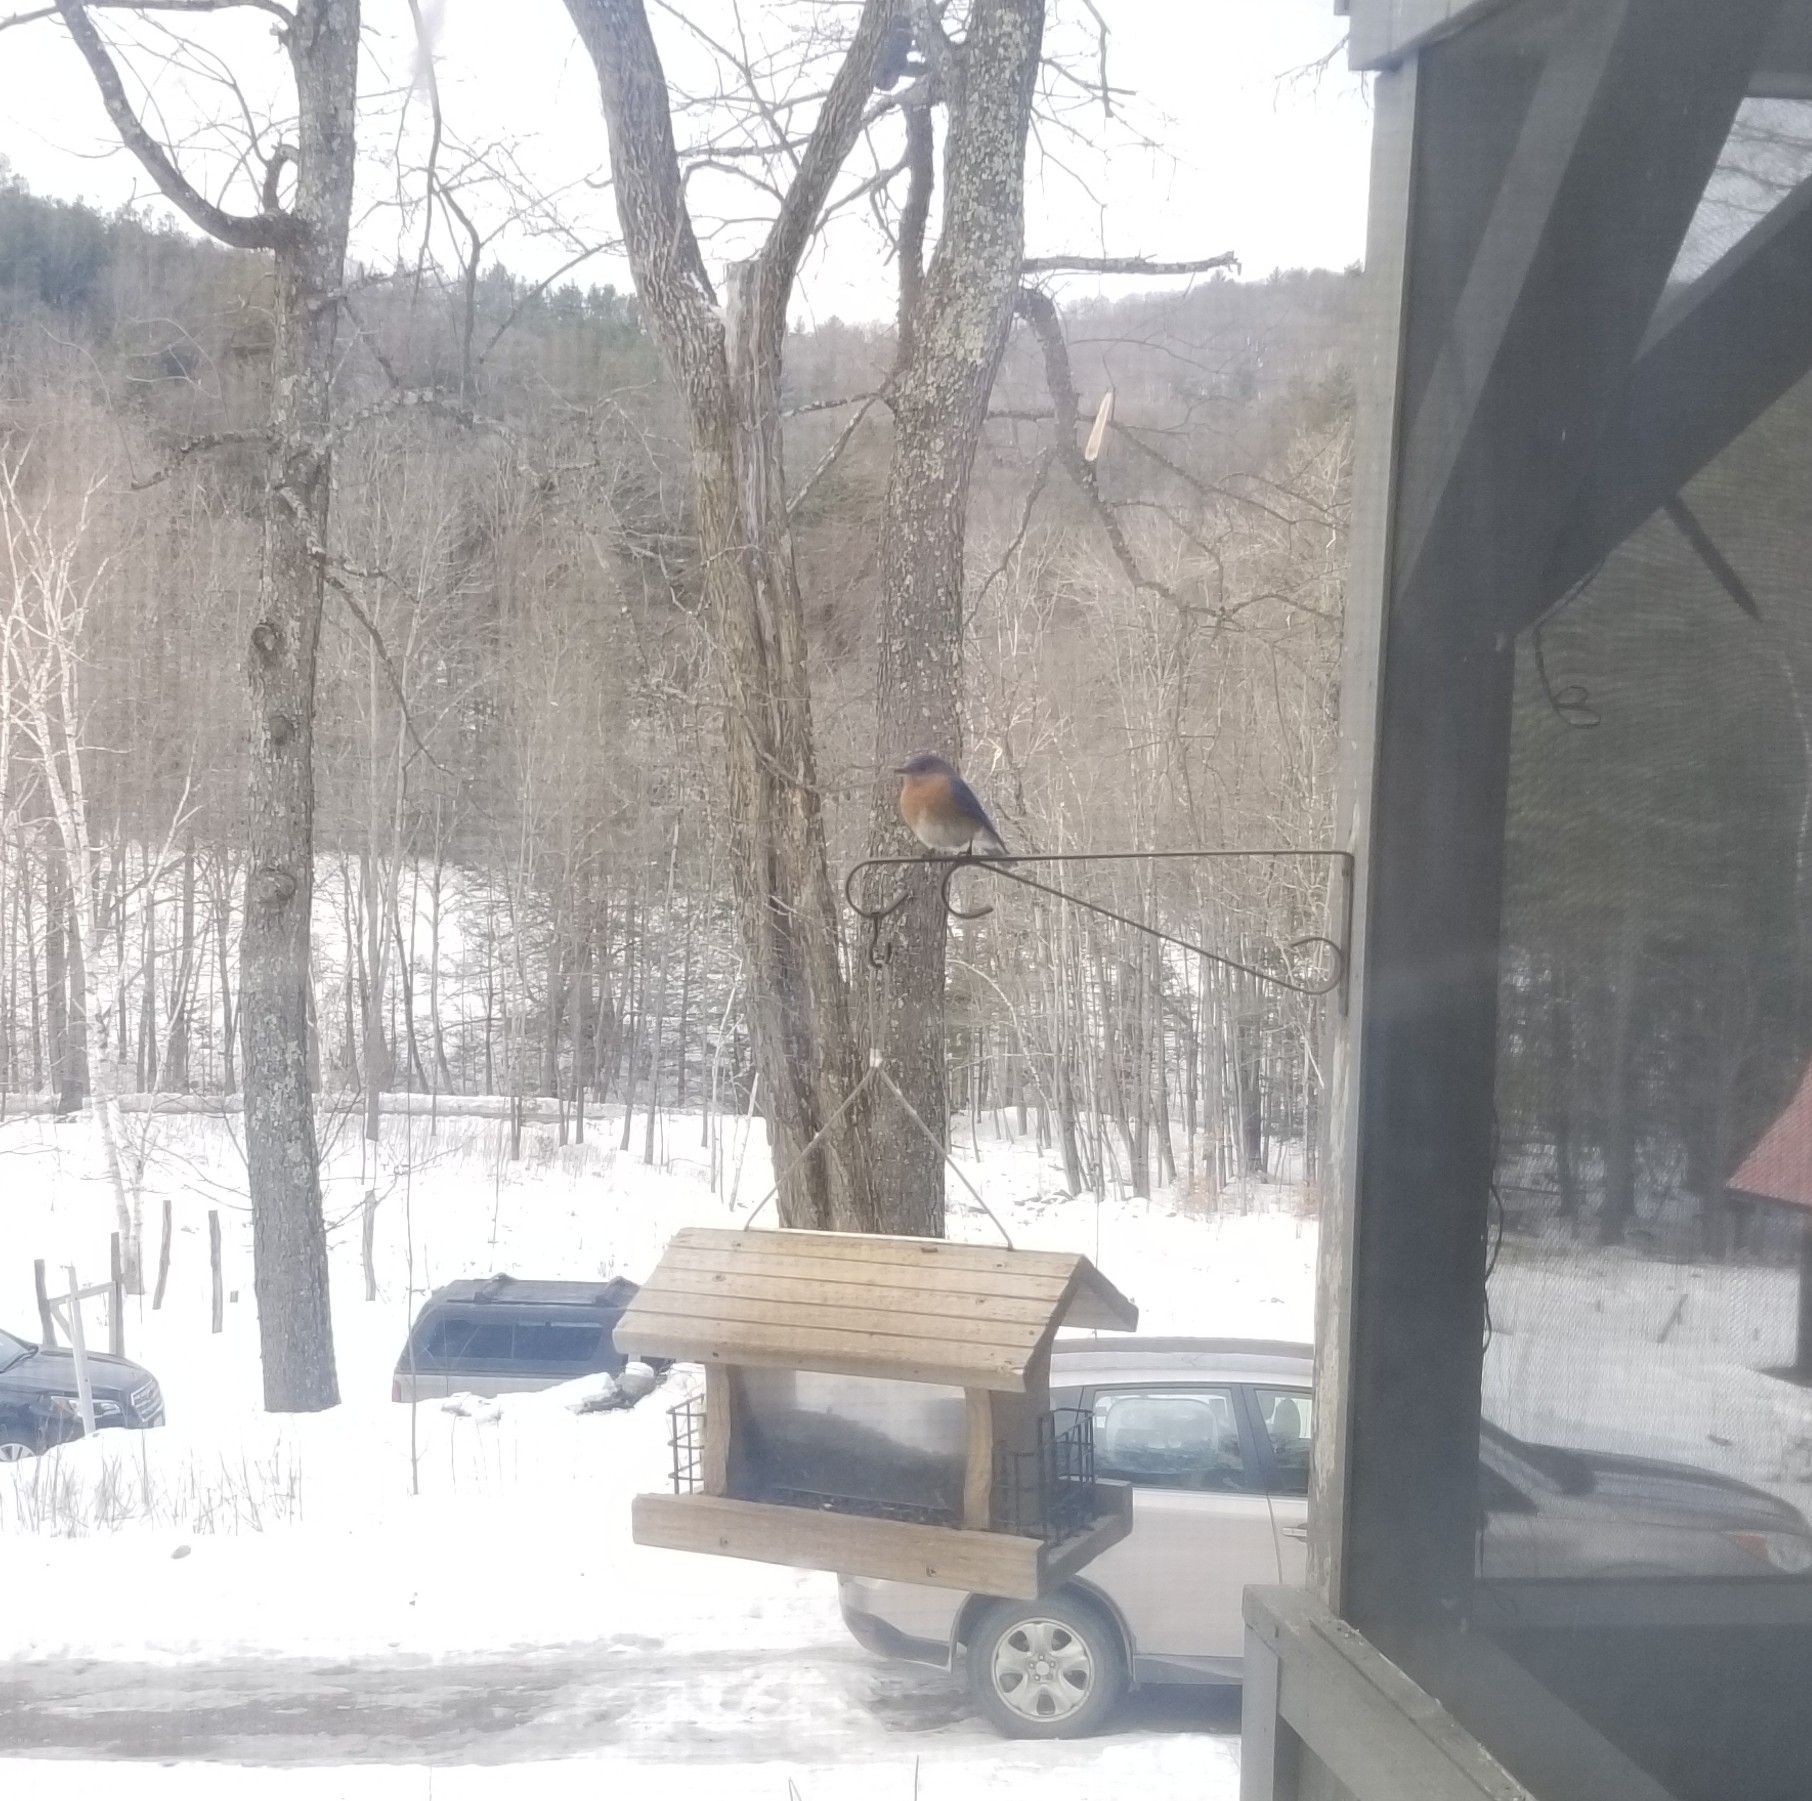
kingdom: Animalia
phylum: Chordata
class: Aves
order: Passeriformes
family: Turdidae
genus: Sialia
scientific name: Sialia sialis
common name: Eastern bluebird
